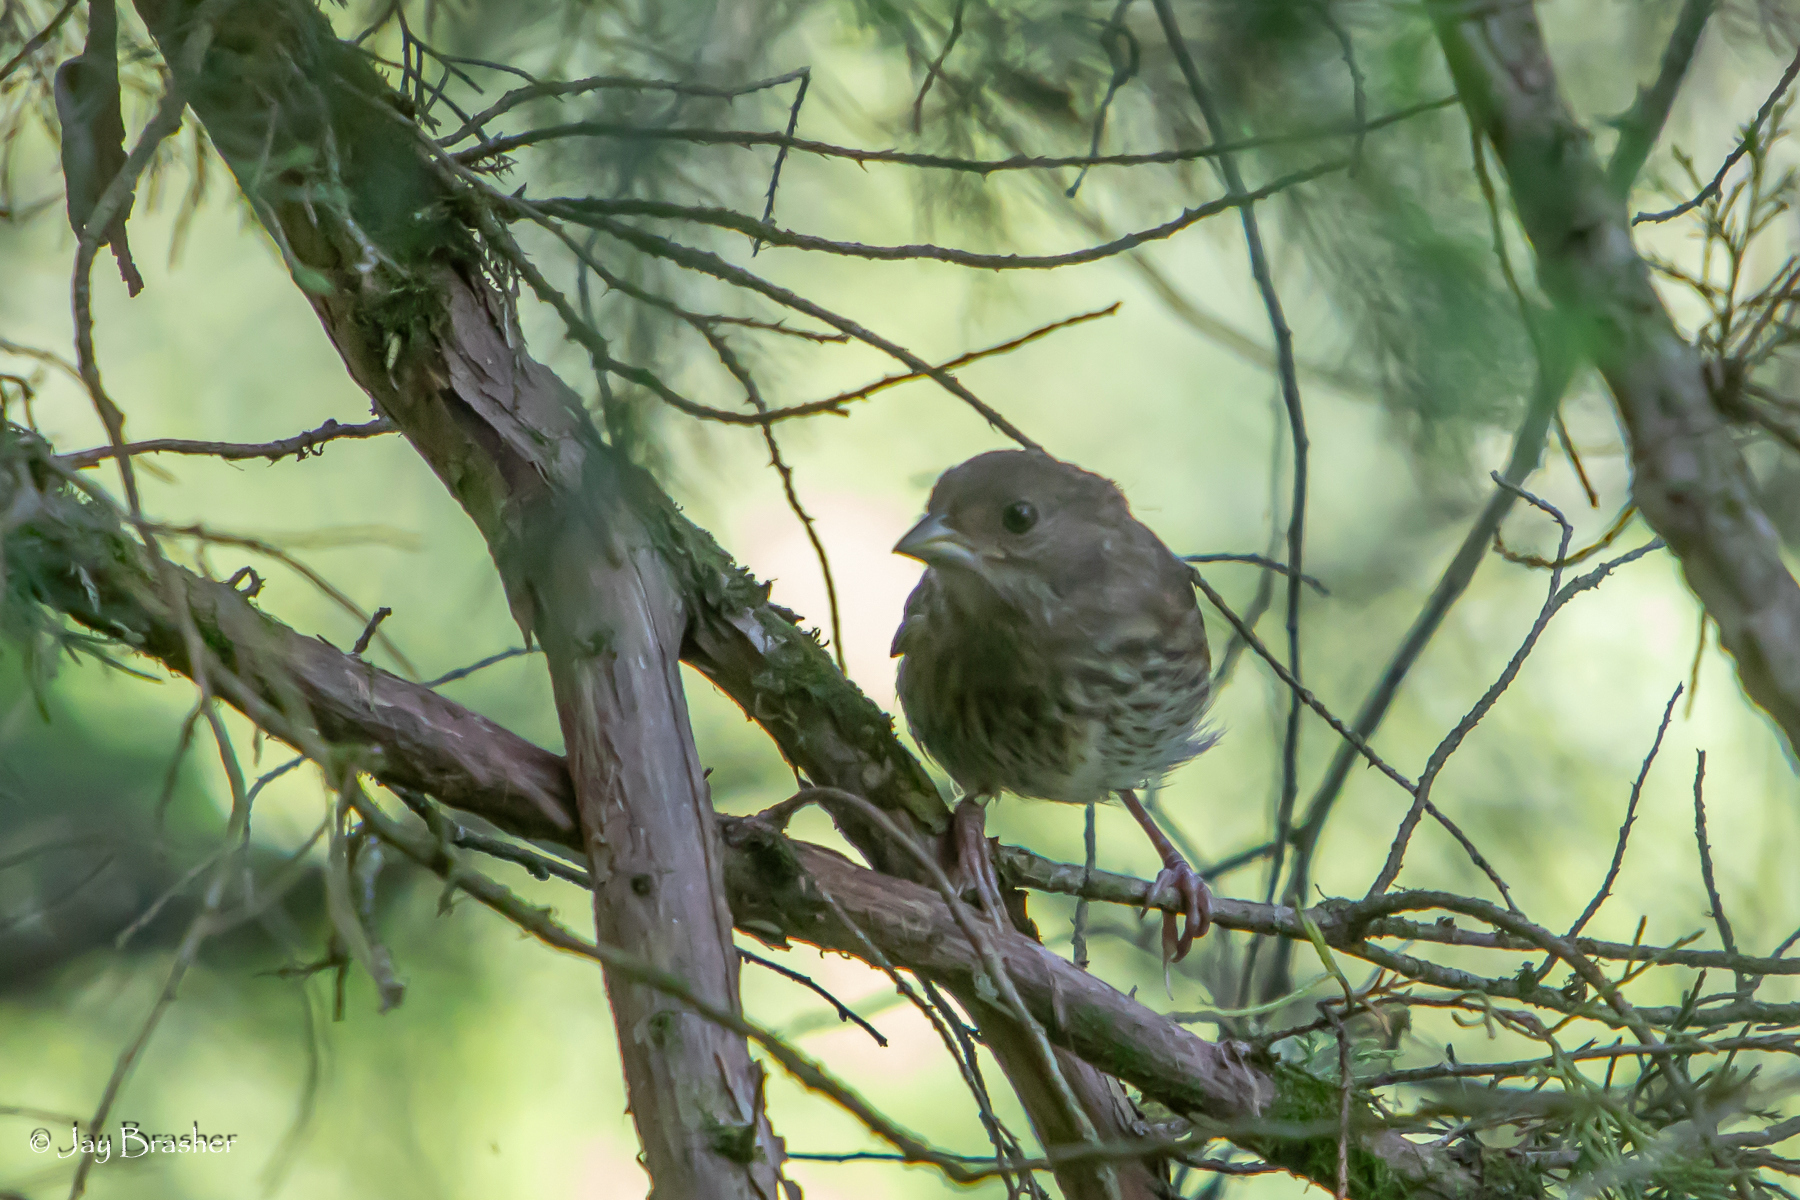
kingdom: Animalia
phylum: Chordata
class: Aves
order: Passeriformes
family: Passerellidae
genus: Pipilo
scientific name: Pipilo erythrophthalmus
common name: Eastern towhee
